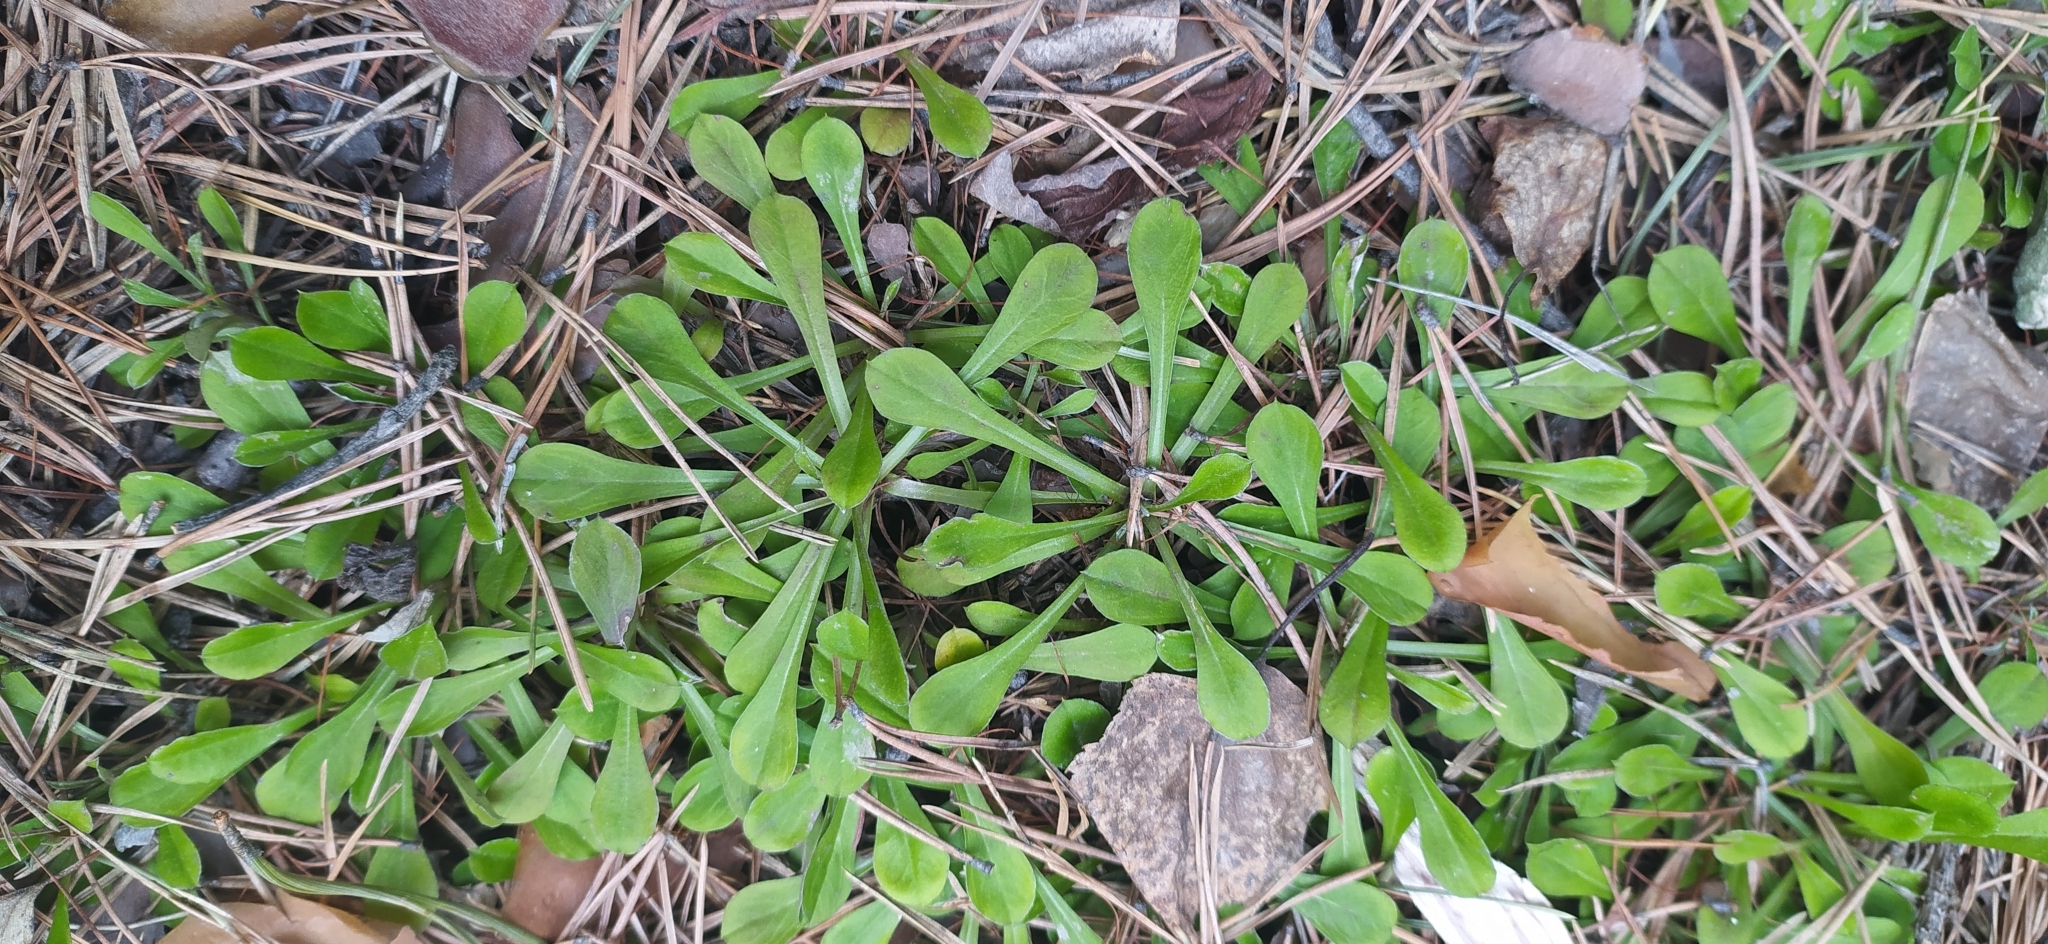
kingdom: Plantae
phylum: Tracheophyta
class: Magnoliopsida
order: Asterales
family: Asteraceae
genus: Antennaria
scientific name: Antennaria dioica
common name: Mountain everlasting
